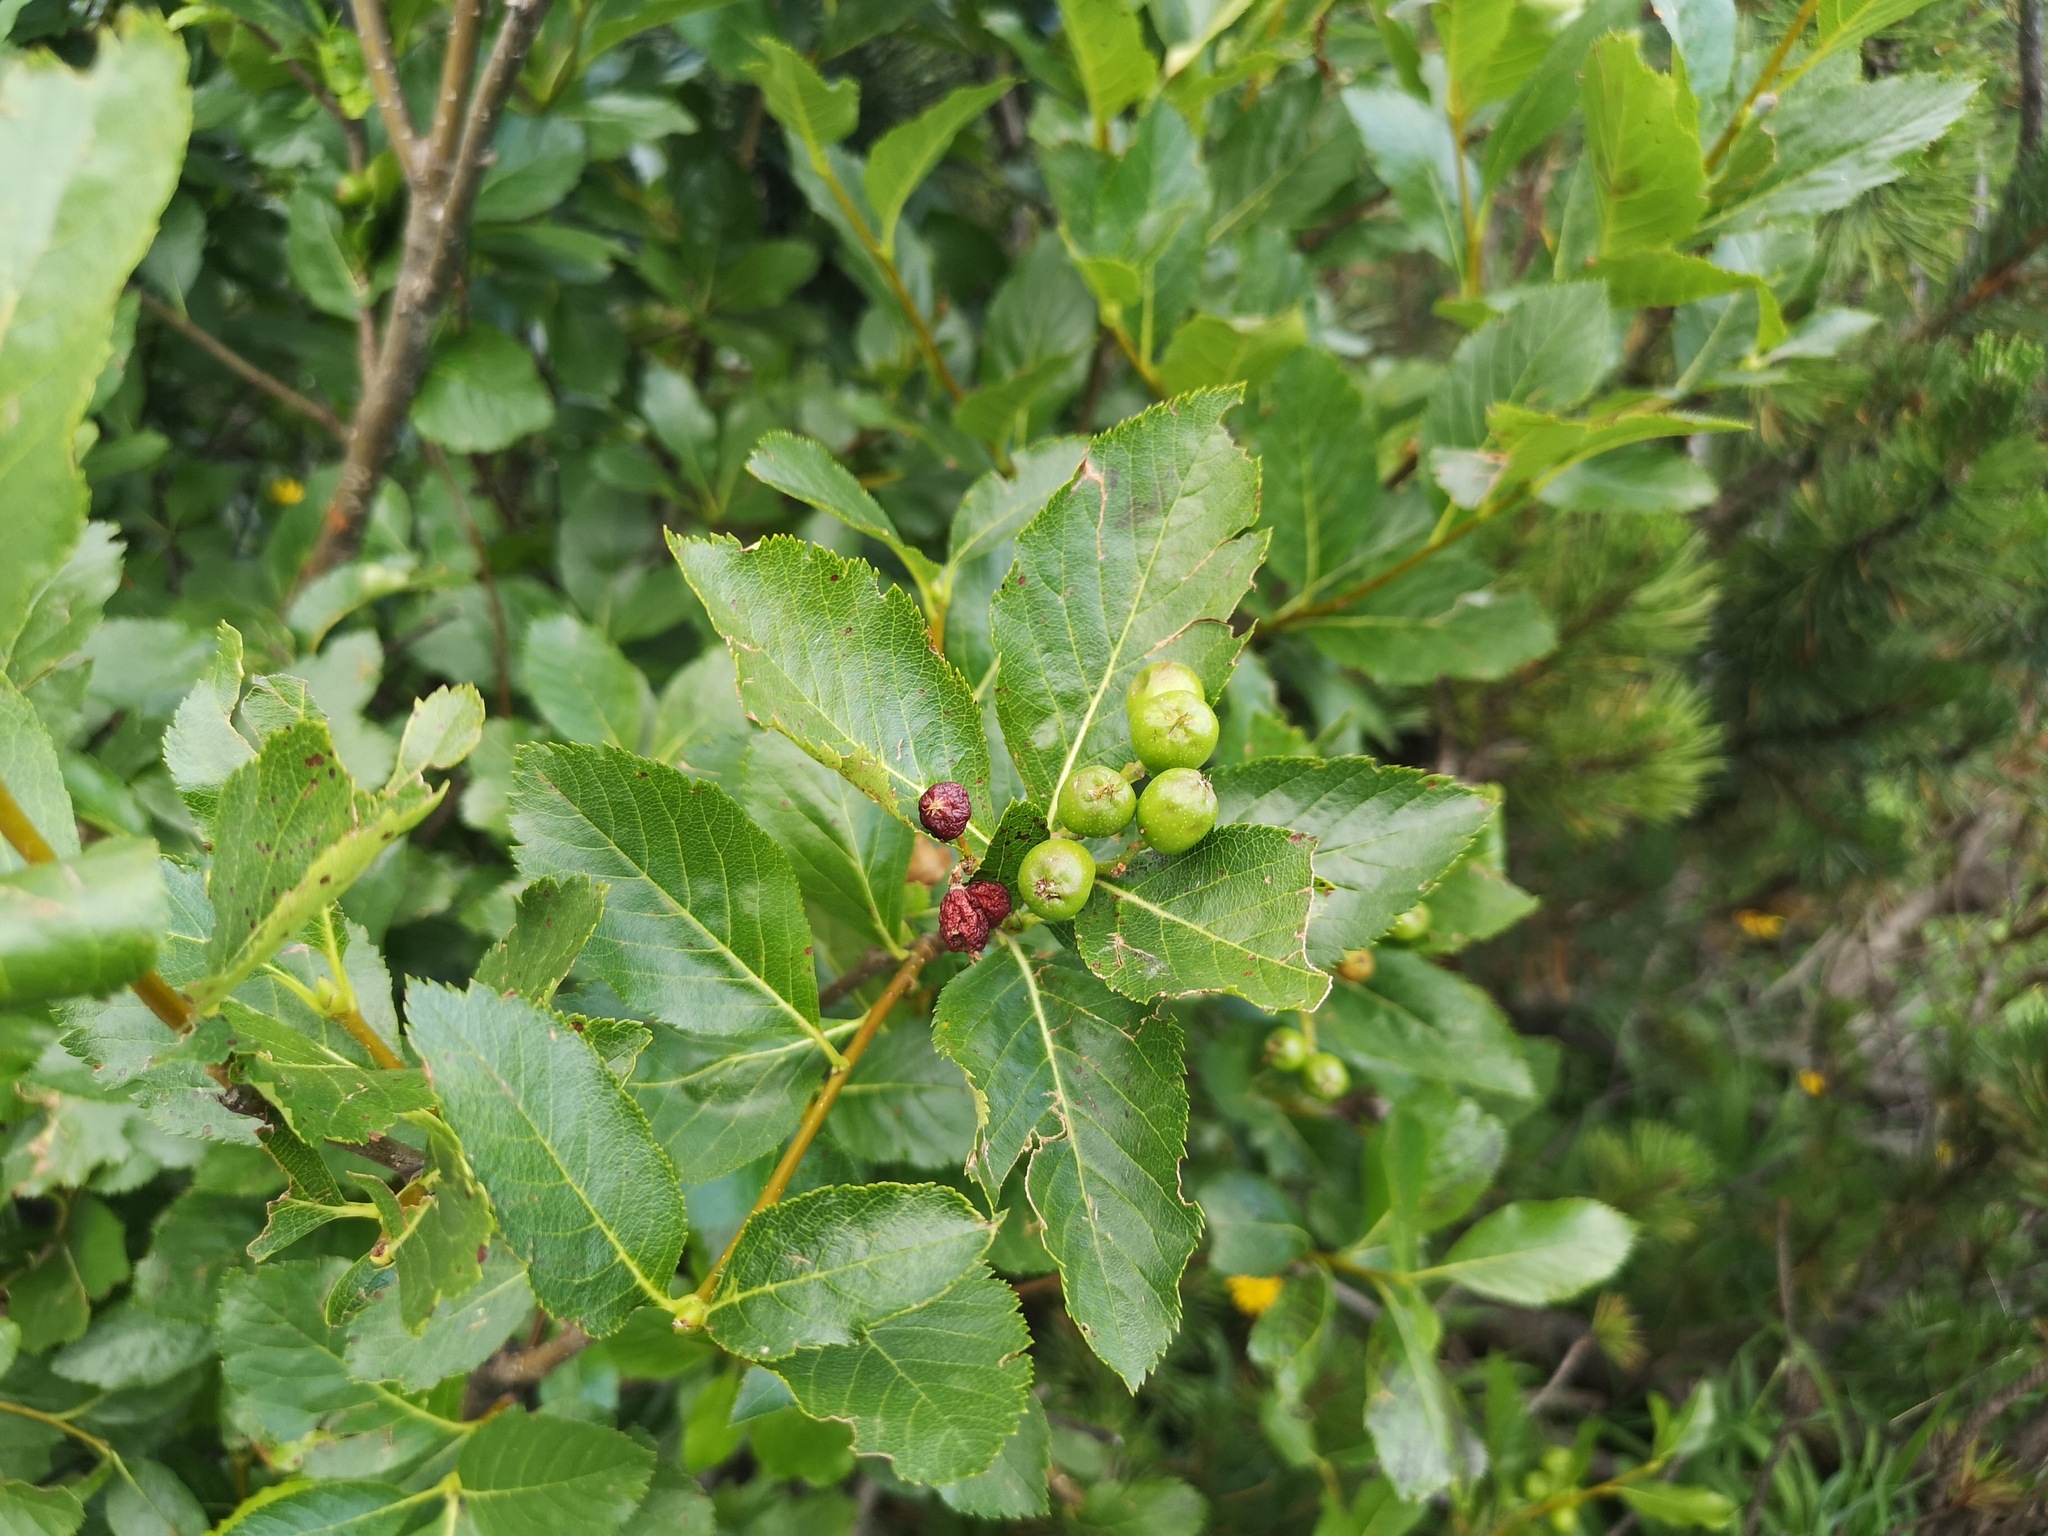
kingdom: Plantae
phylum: Tracheophyta
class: Magnoliopsida
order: Rosales
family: Rosaceae
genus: Chamaemespilus
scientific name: Chamaemespilus alpina
